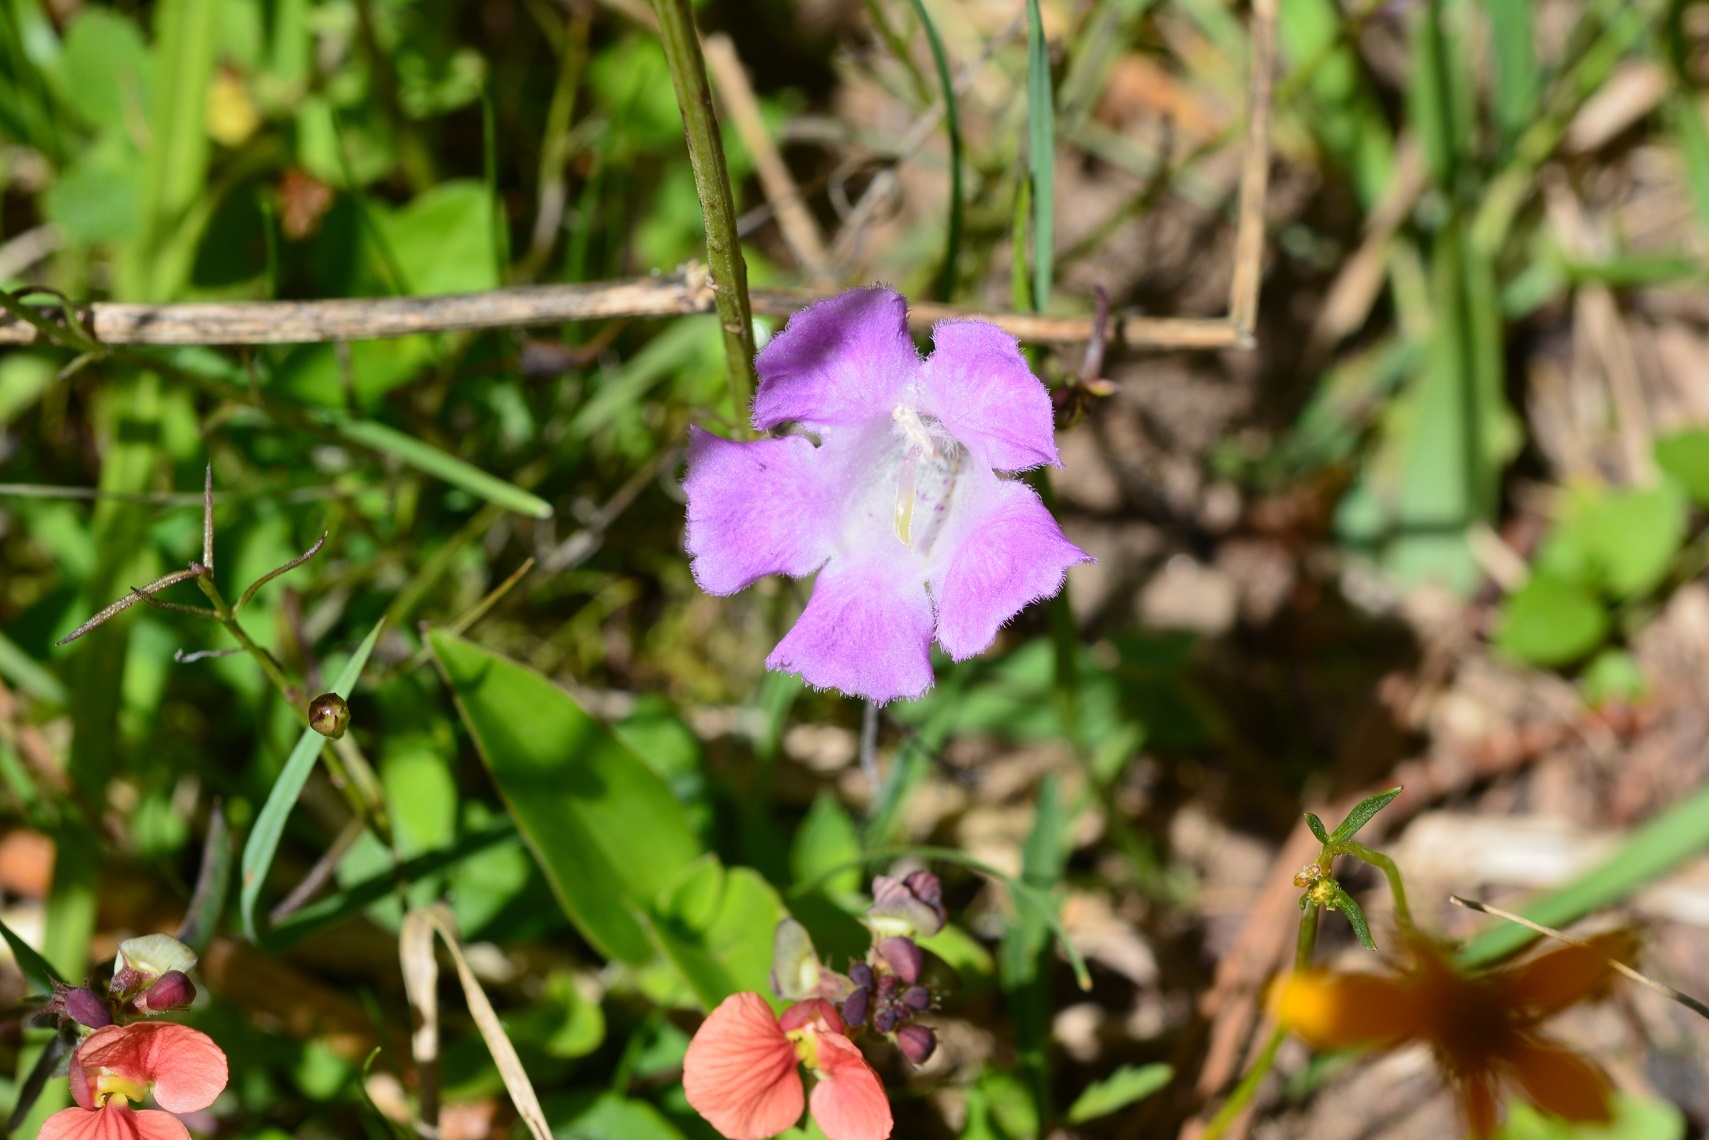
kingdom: Plantae
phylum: Tracheophyta
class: Magnoliopsida
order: Lamiales
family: Orobanchaceae
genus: Agalinis
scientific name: Agalinis peduncularis
